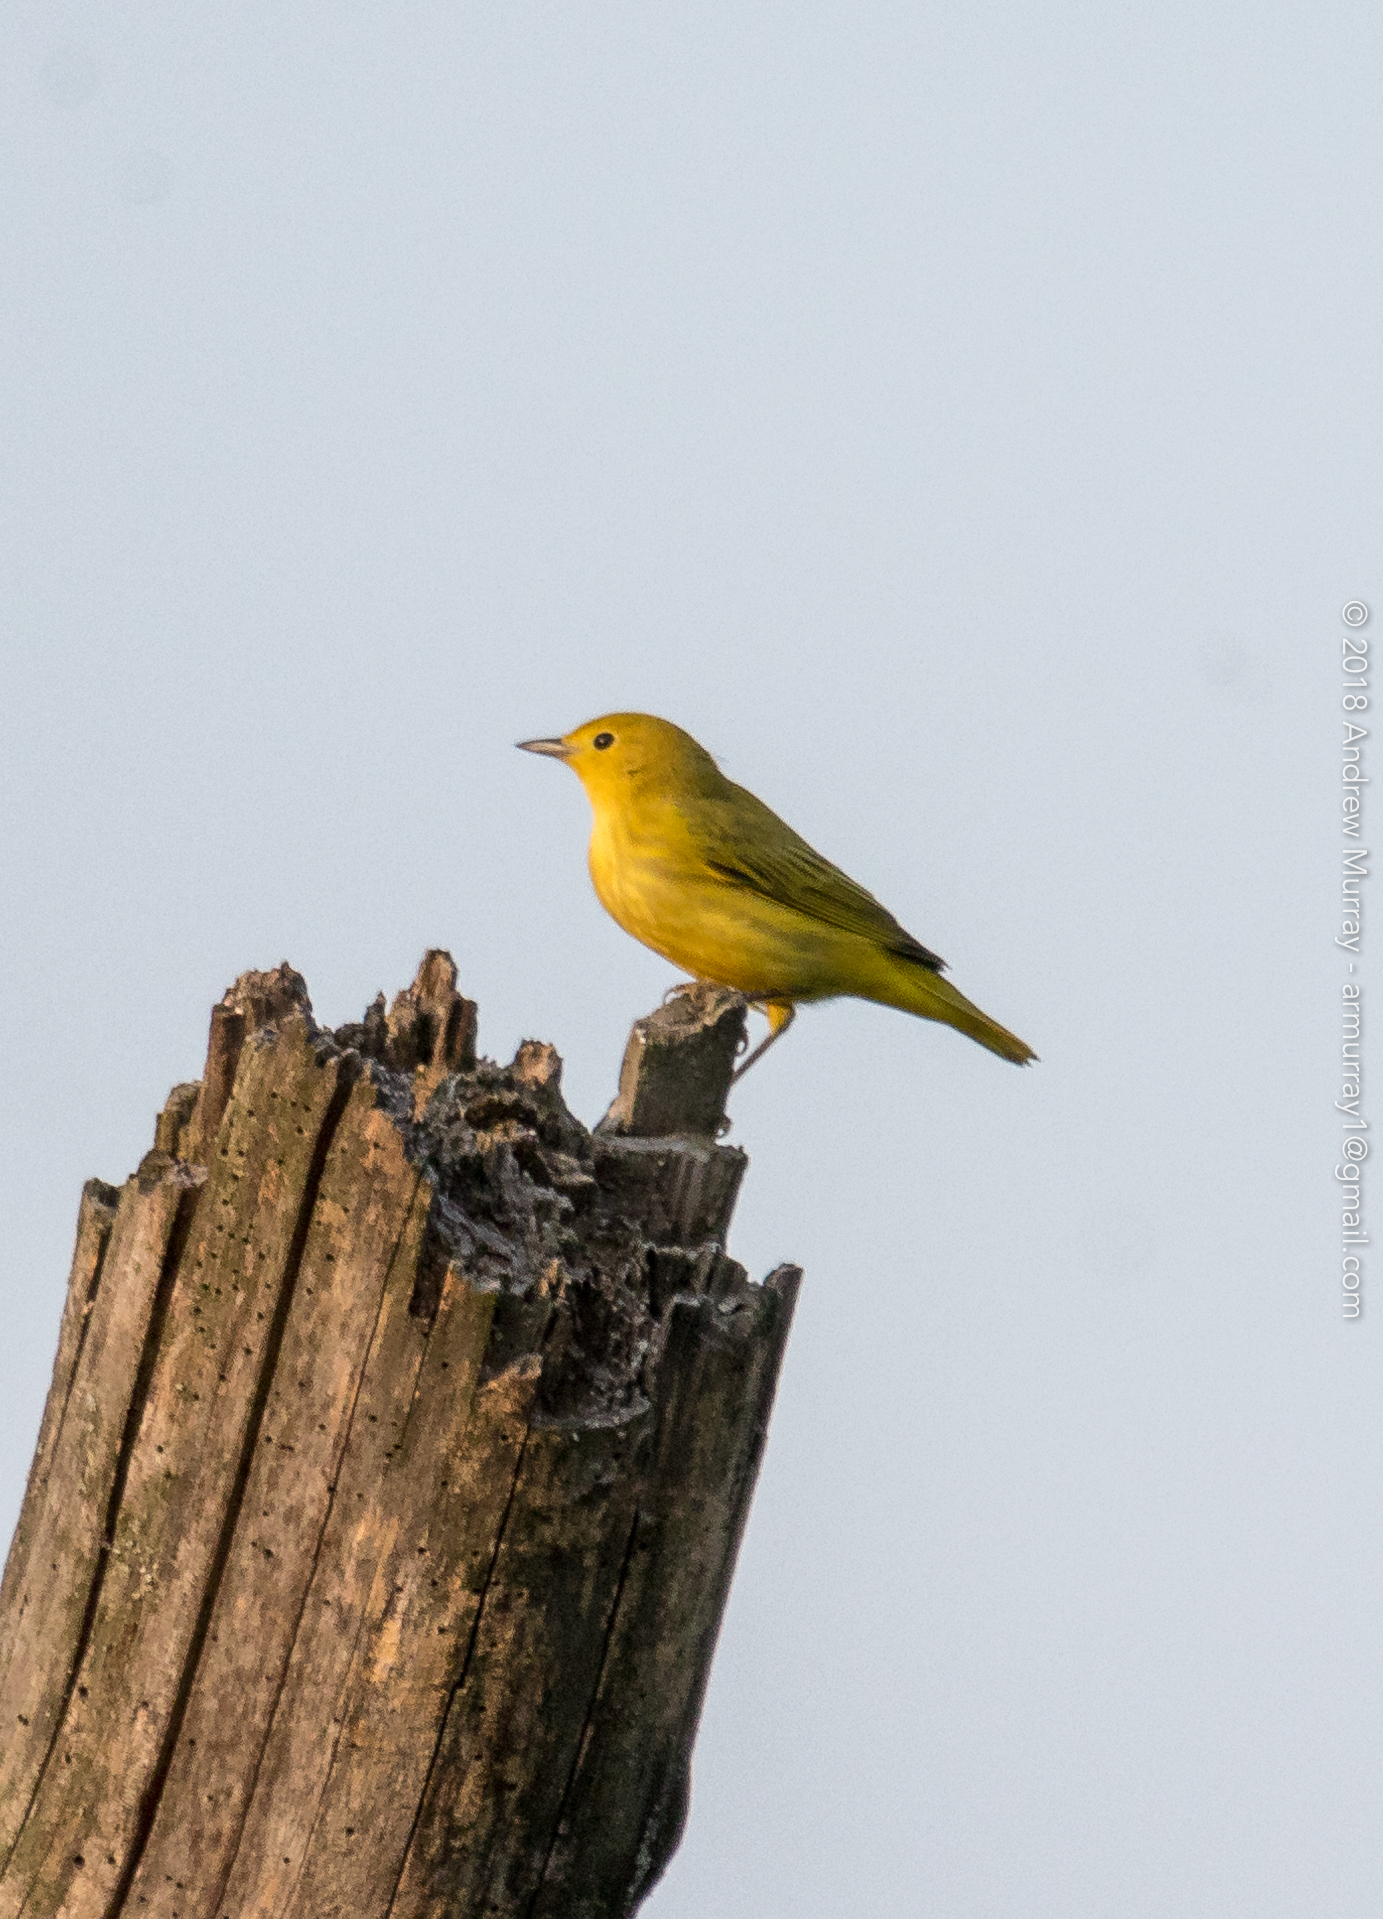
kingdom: Animalia
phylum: Chordata
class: Aves
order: Passeriformes
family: Parulidae
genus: Setophaga
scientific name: Setophaga petechia
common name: Yellow warbler
